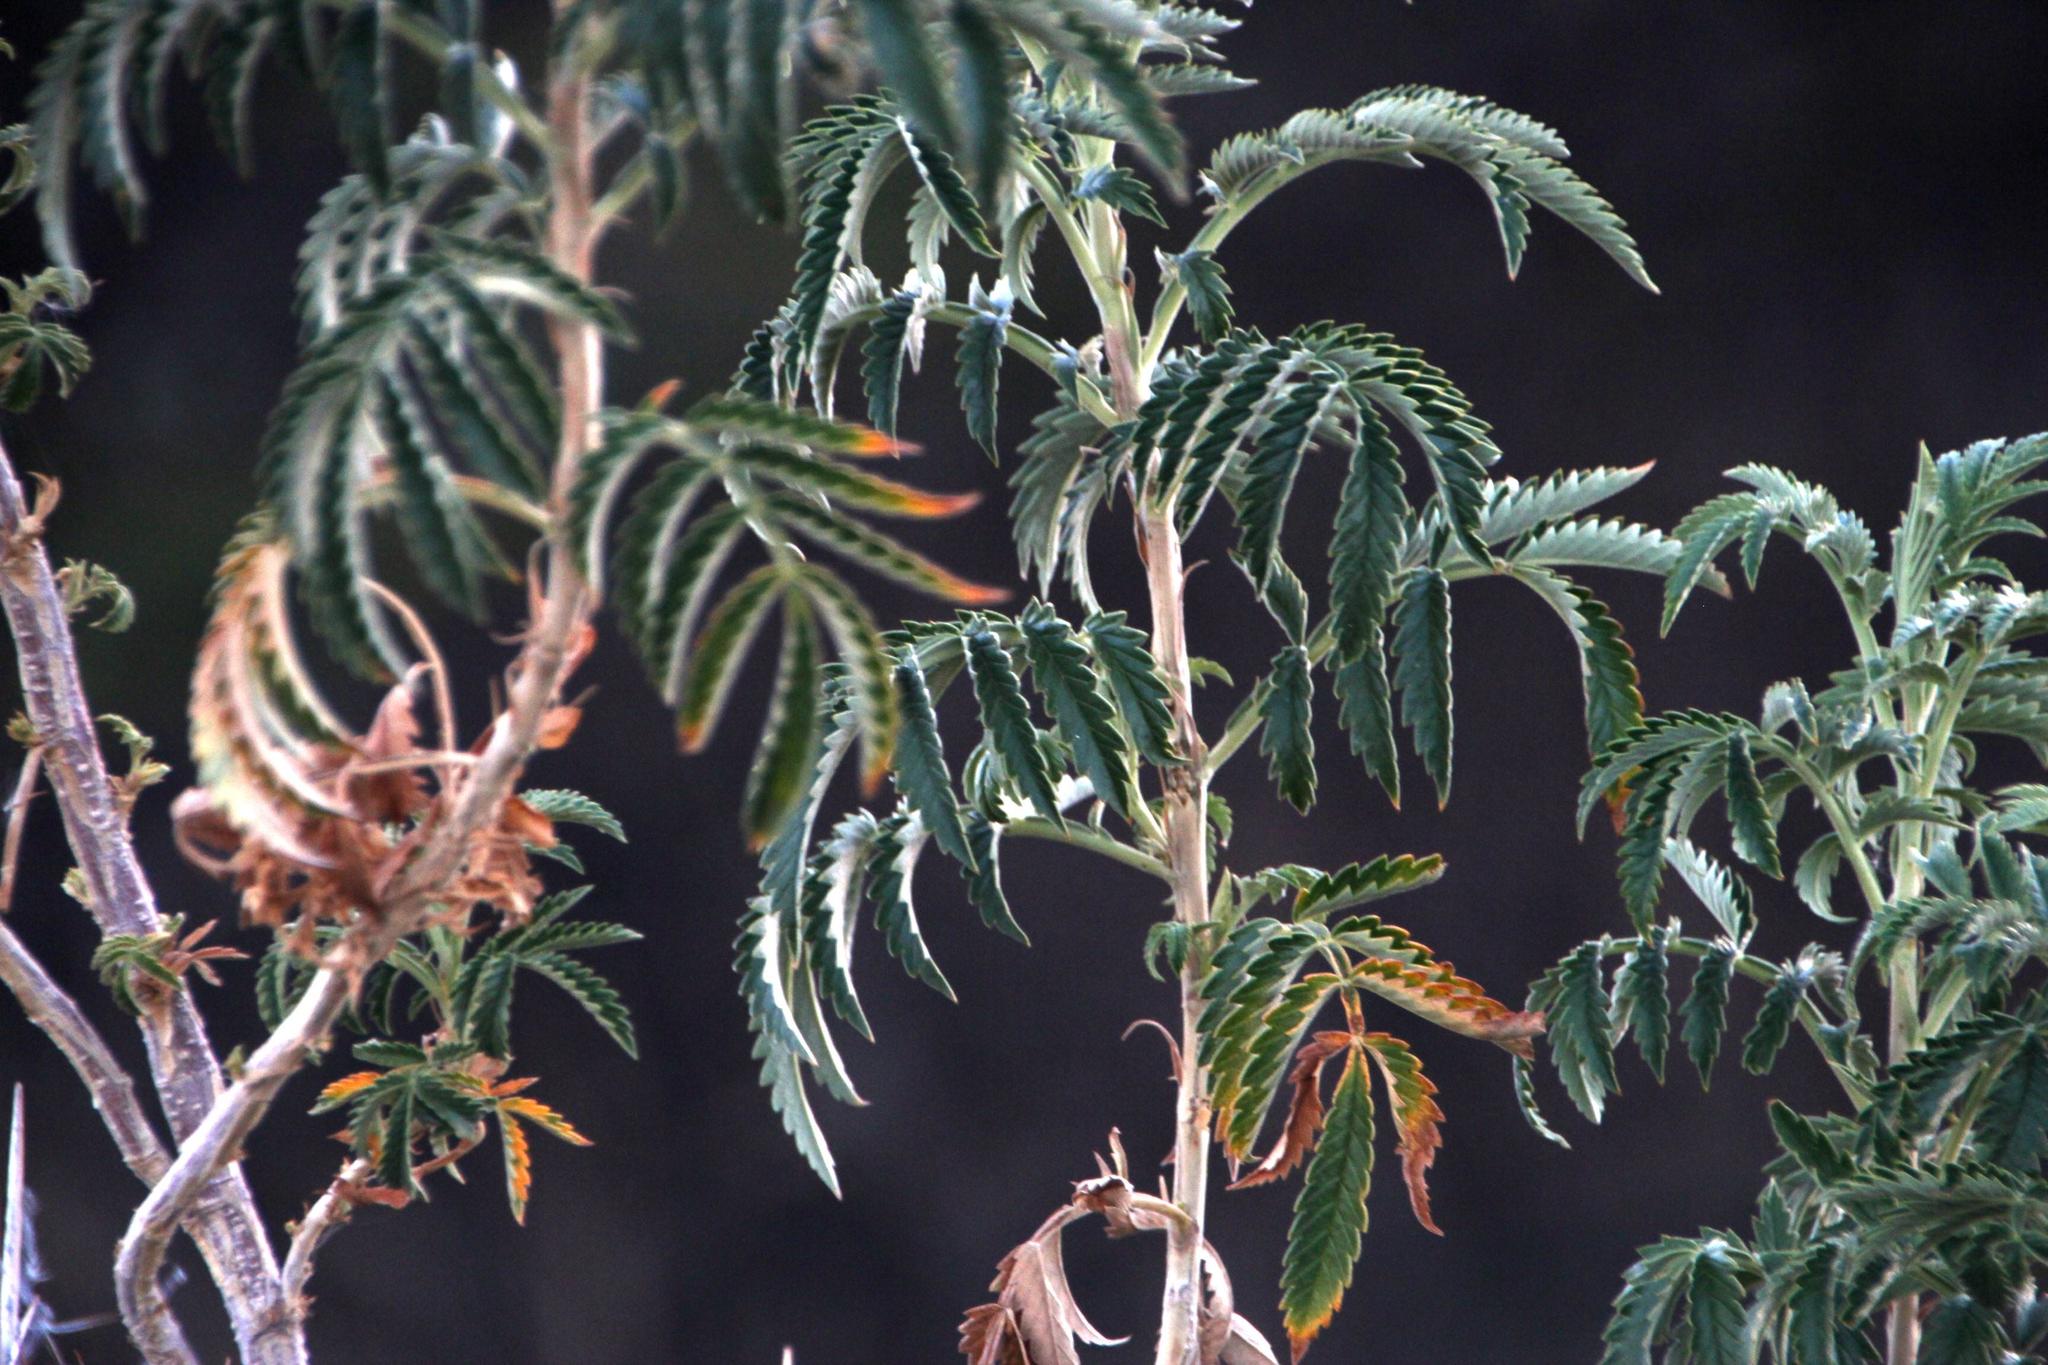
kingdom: Plantae
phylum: Tracheophyta
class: Magnoliopsida
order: Geraniales
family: Melianthaceae
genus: Melianthus
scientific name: Melianthus comosus
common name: Touch-me-not
